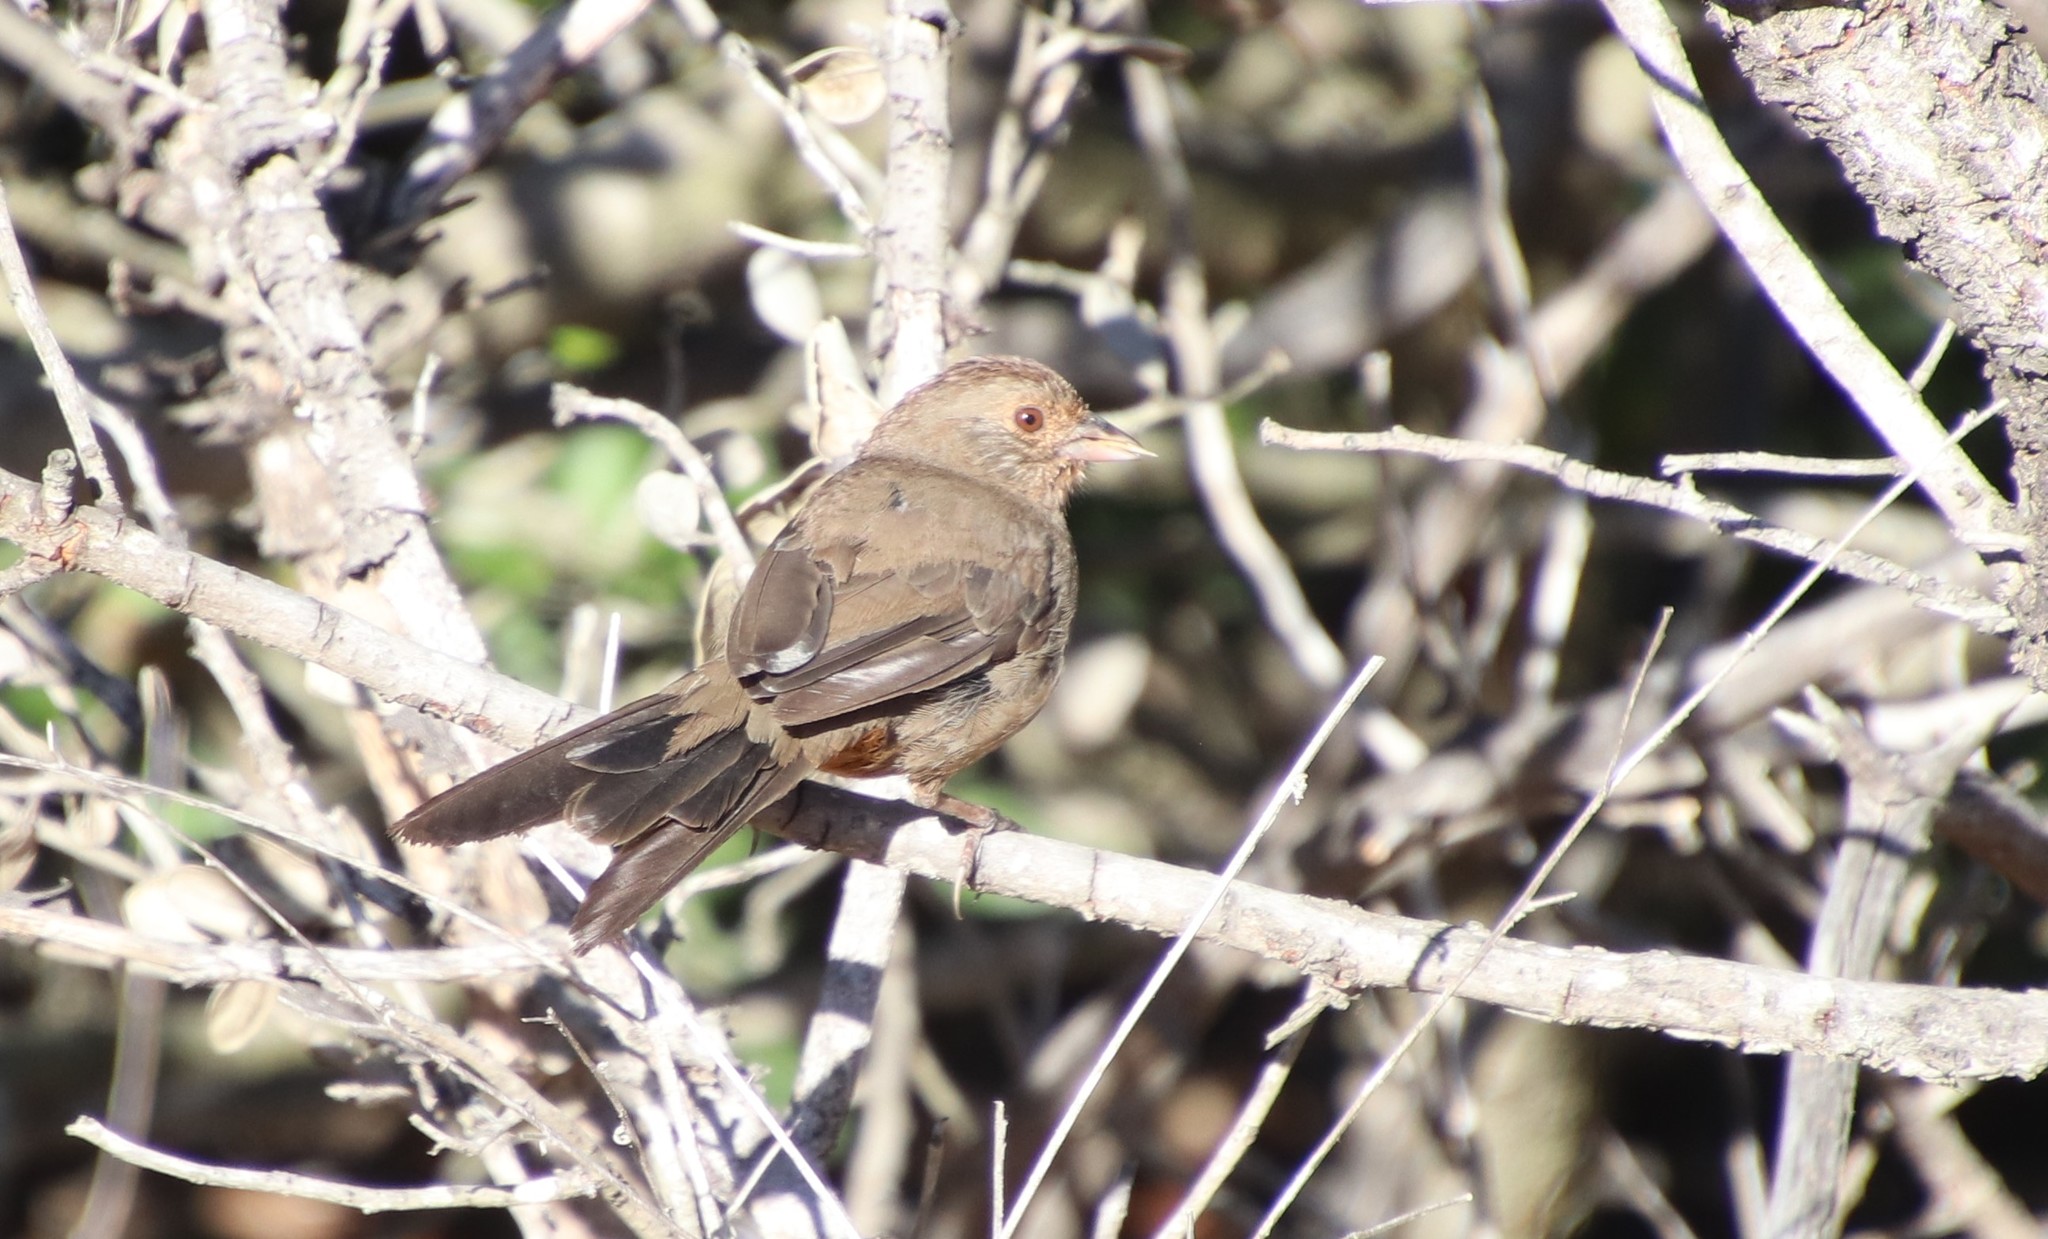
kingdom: Animalia
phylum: Chordata
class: Aves
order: Passeriformes
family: Passerellidae
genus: Melozone
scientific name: Melozone crissalis
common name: California towhee
